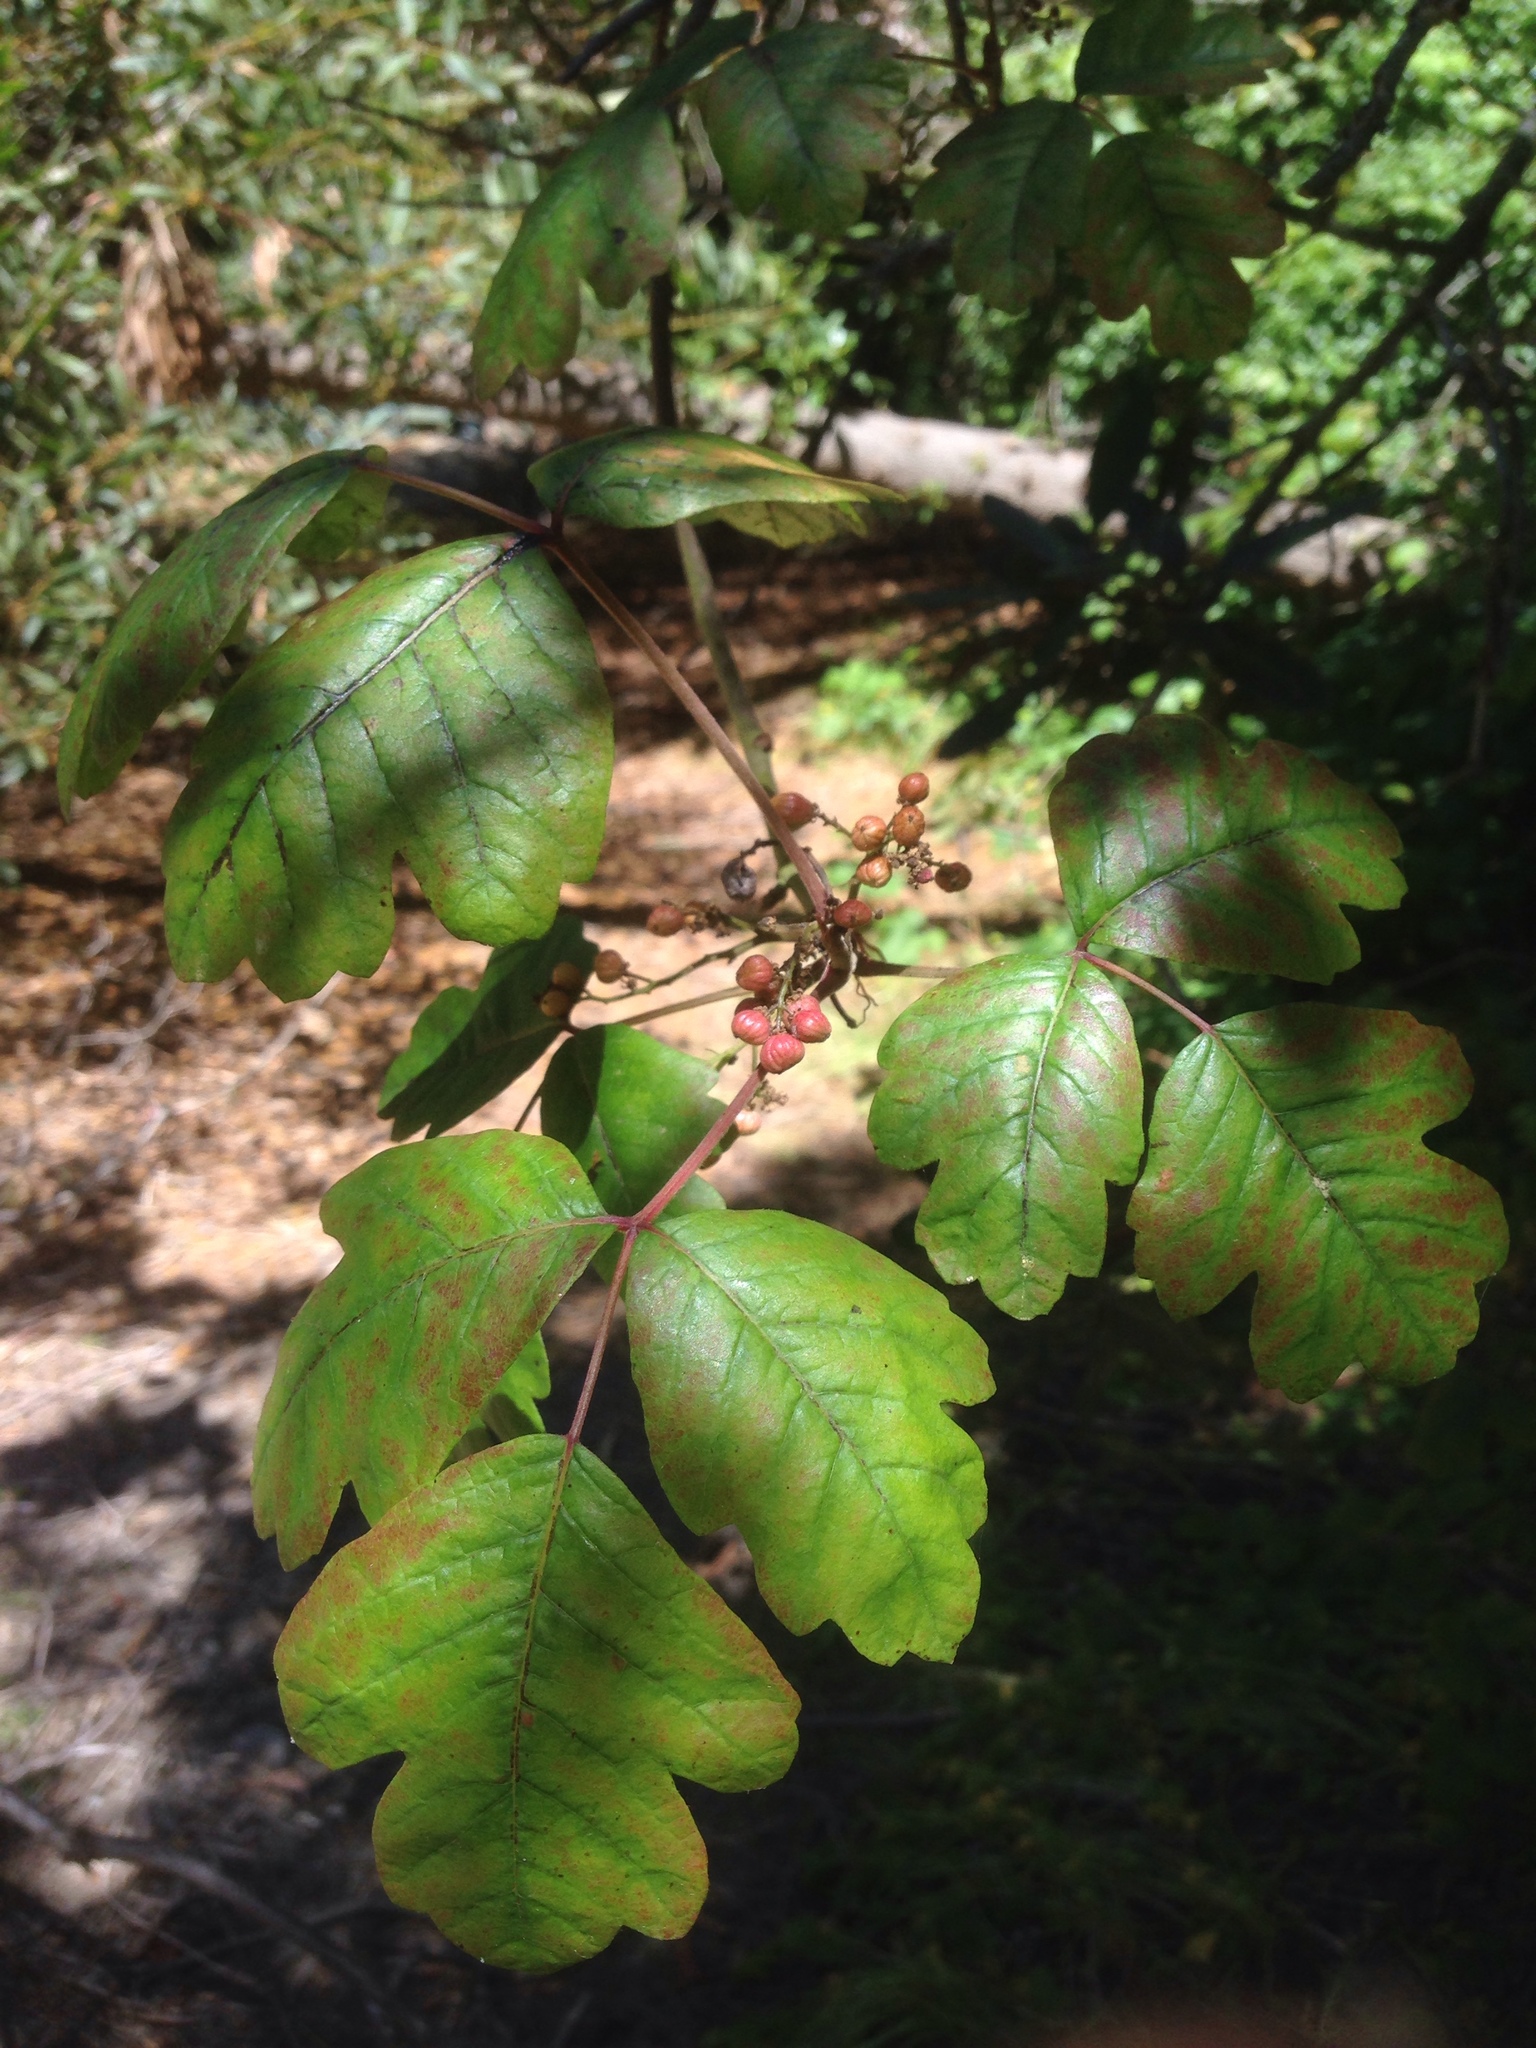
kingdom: Plantae
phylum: Tracheophyta
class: Magnoliopsida
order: Sapindales
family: Anacardiaceae
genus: Toxicodendron
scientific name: Toxicodendron diversilobum
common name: Pacific poison-oak
